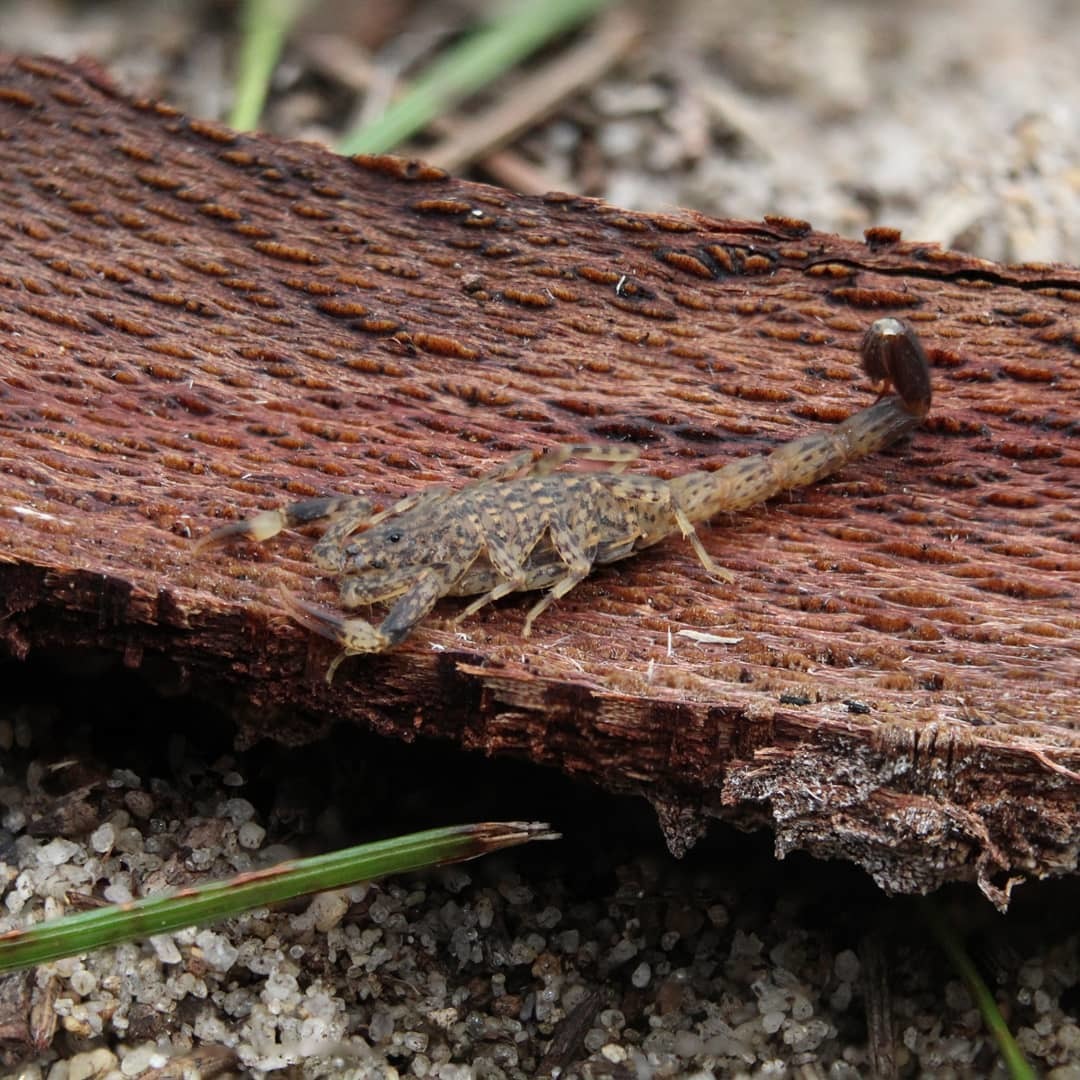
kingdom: Animalia
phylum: Arthropoda
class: Arachnida
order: Scorpiones
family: Buthidae
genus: Lychas
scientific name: Lychas marmoreus
